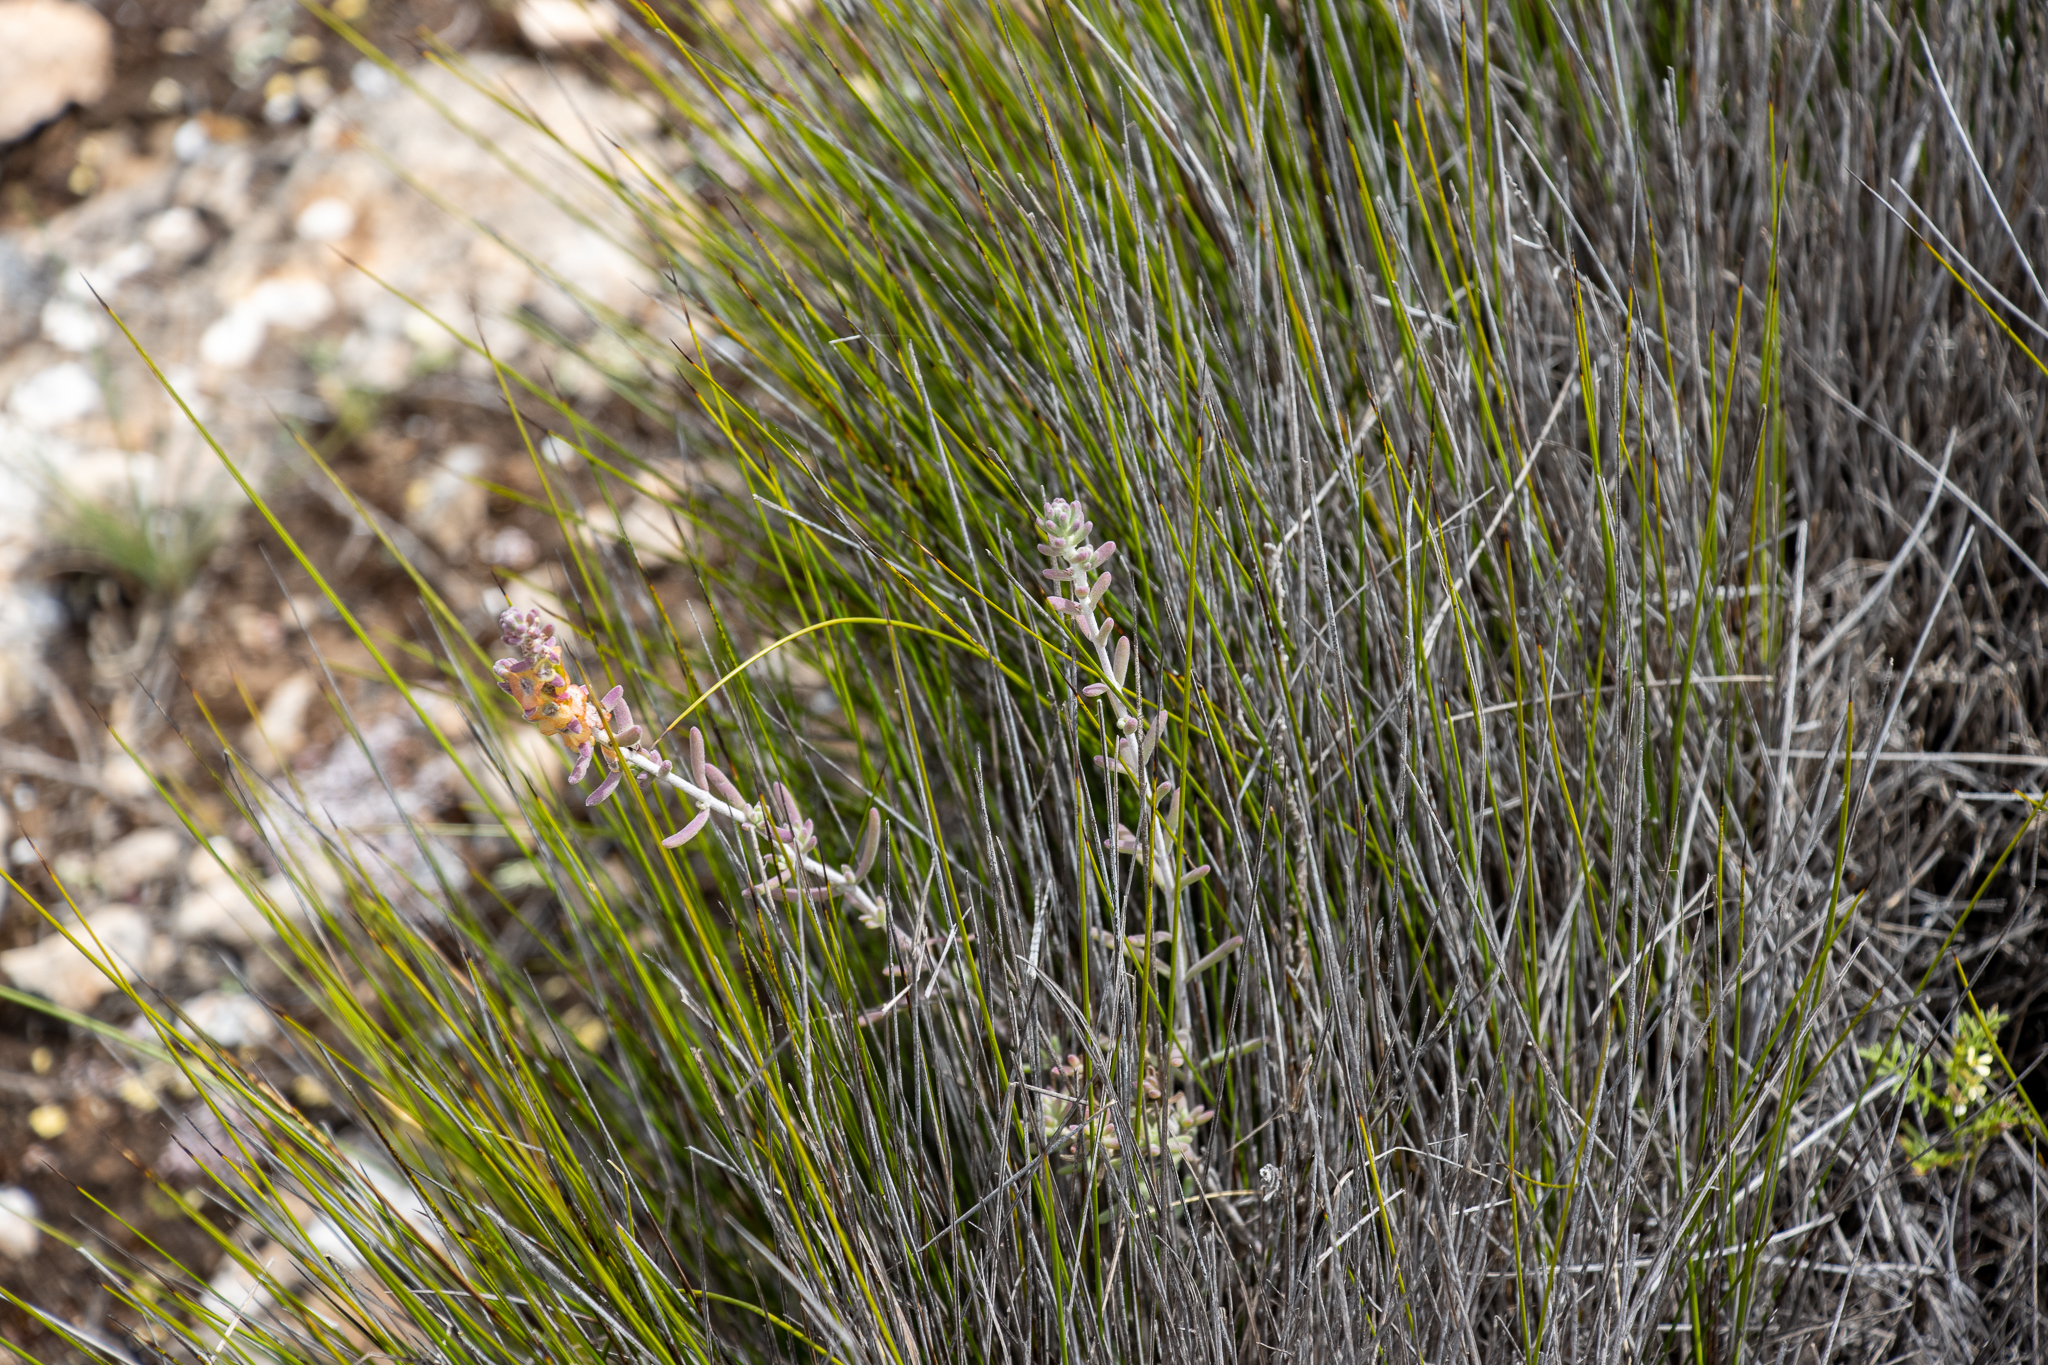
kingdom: Plantae
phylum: Tracheophyta
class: Magnoliopsida
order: Caryophyllales
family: Amaranthaceae
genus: Maireana
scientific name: Maireana trichoptera
